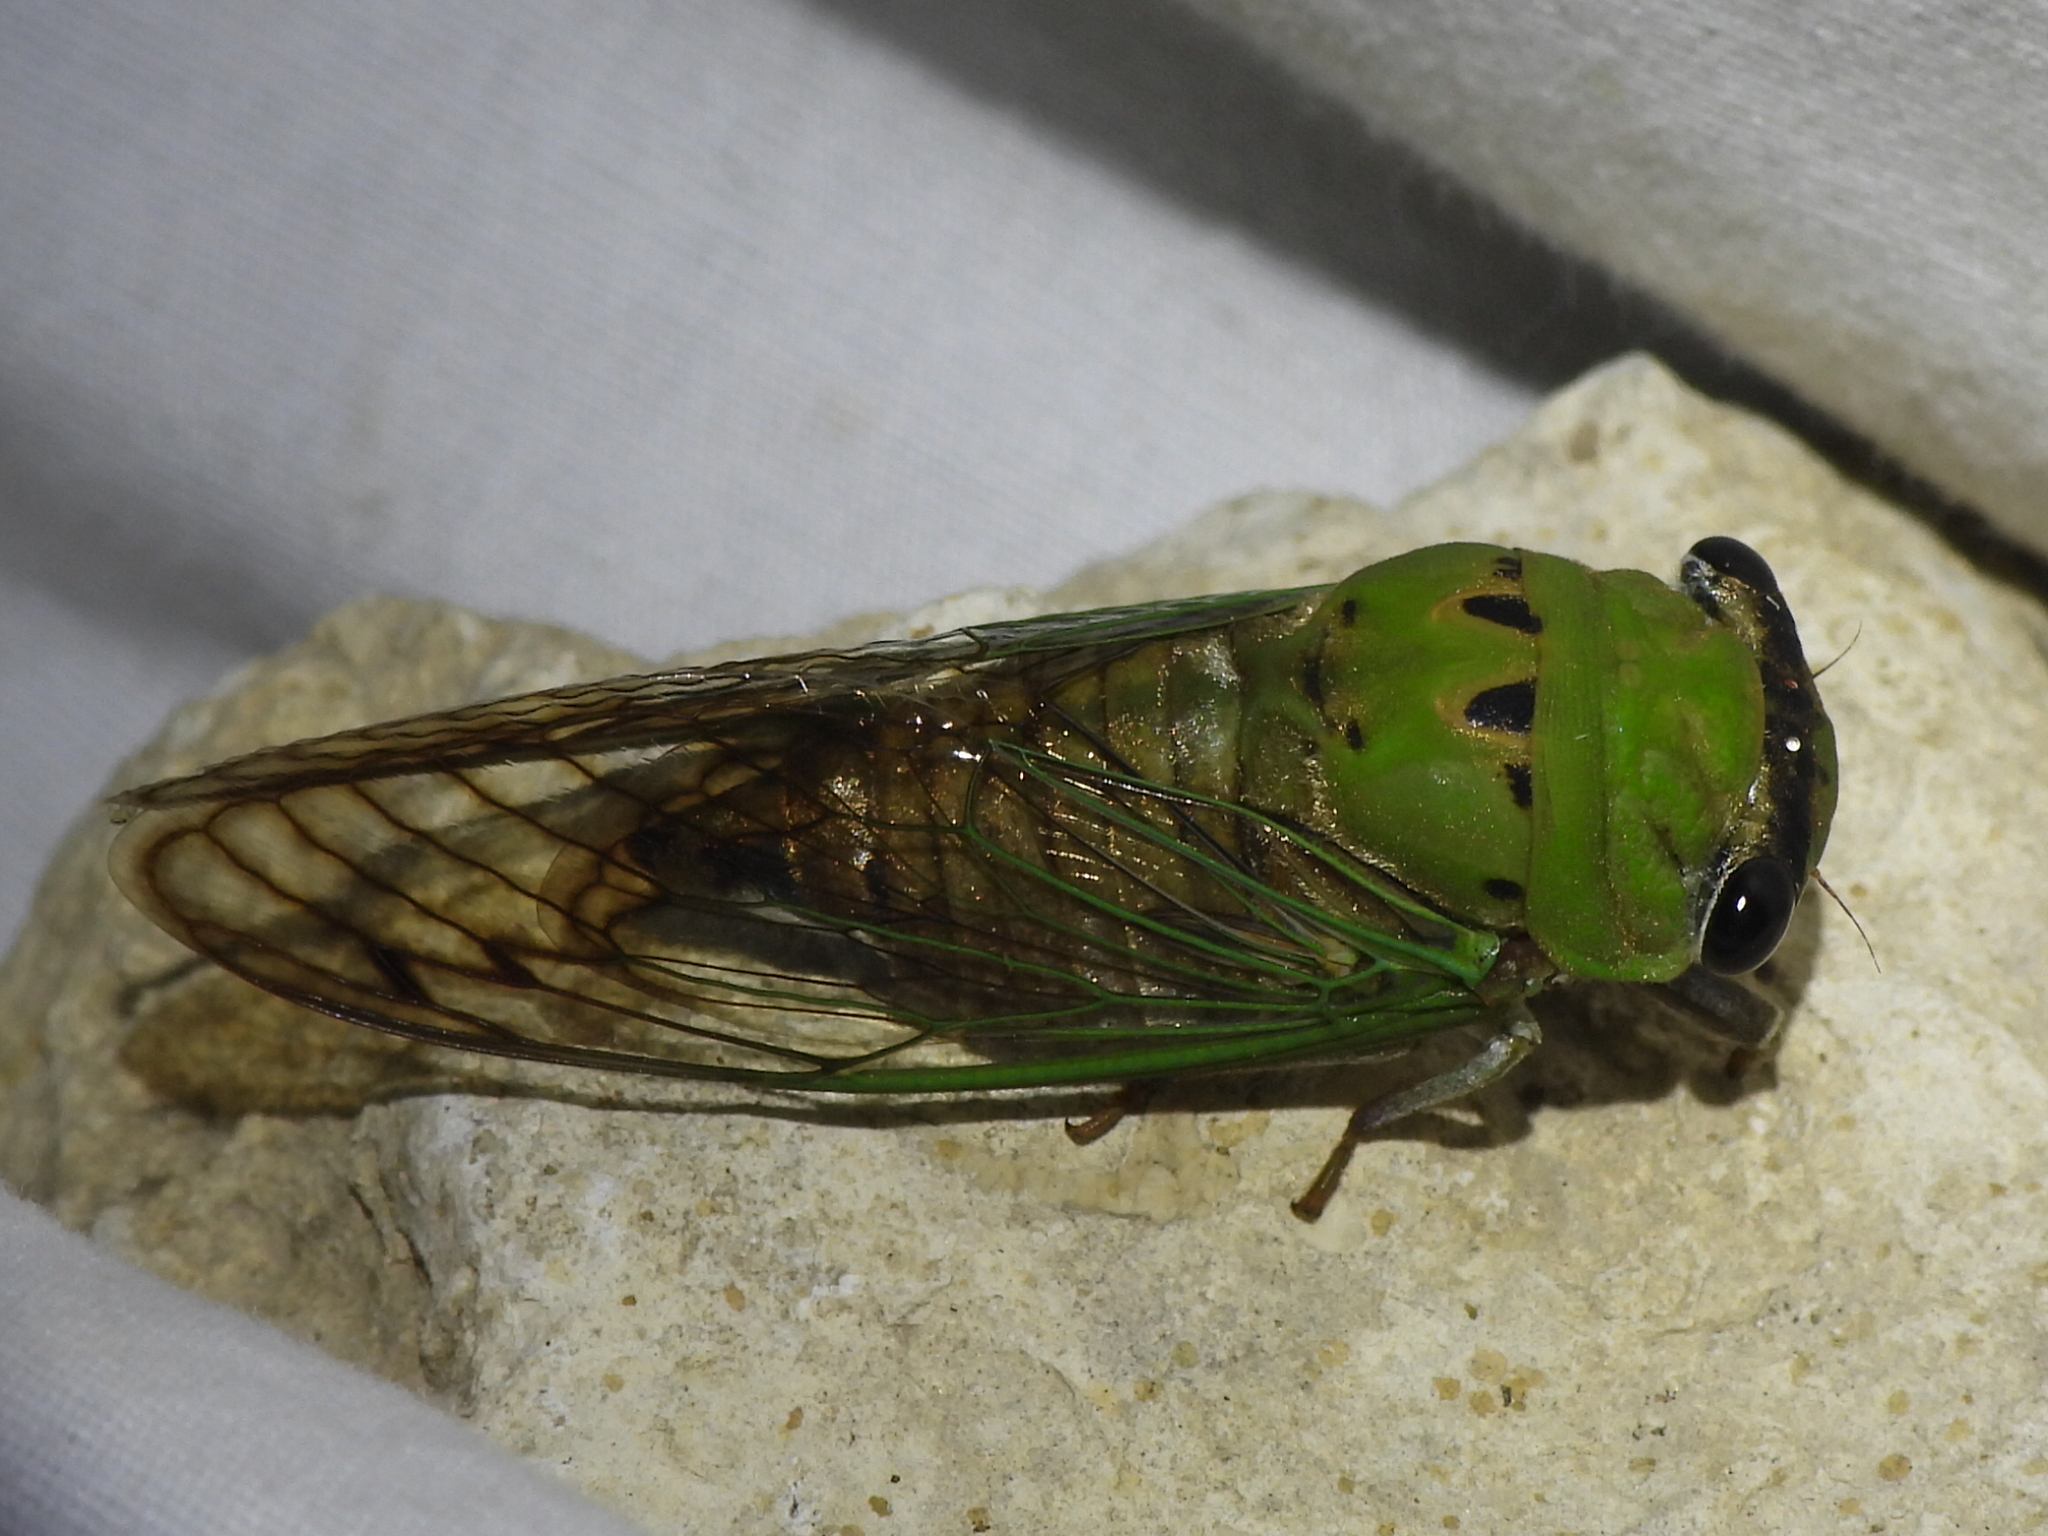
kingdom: Animalia
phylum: Arthropoda
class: Insecta
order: Hemiptera
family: Cicadidae
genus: Neotibicen
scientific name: Neotibicen superbus
